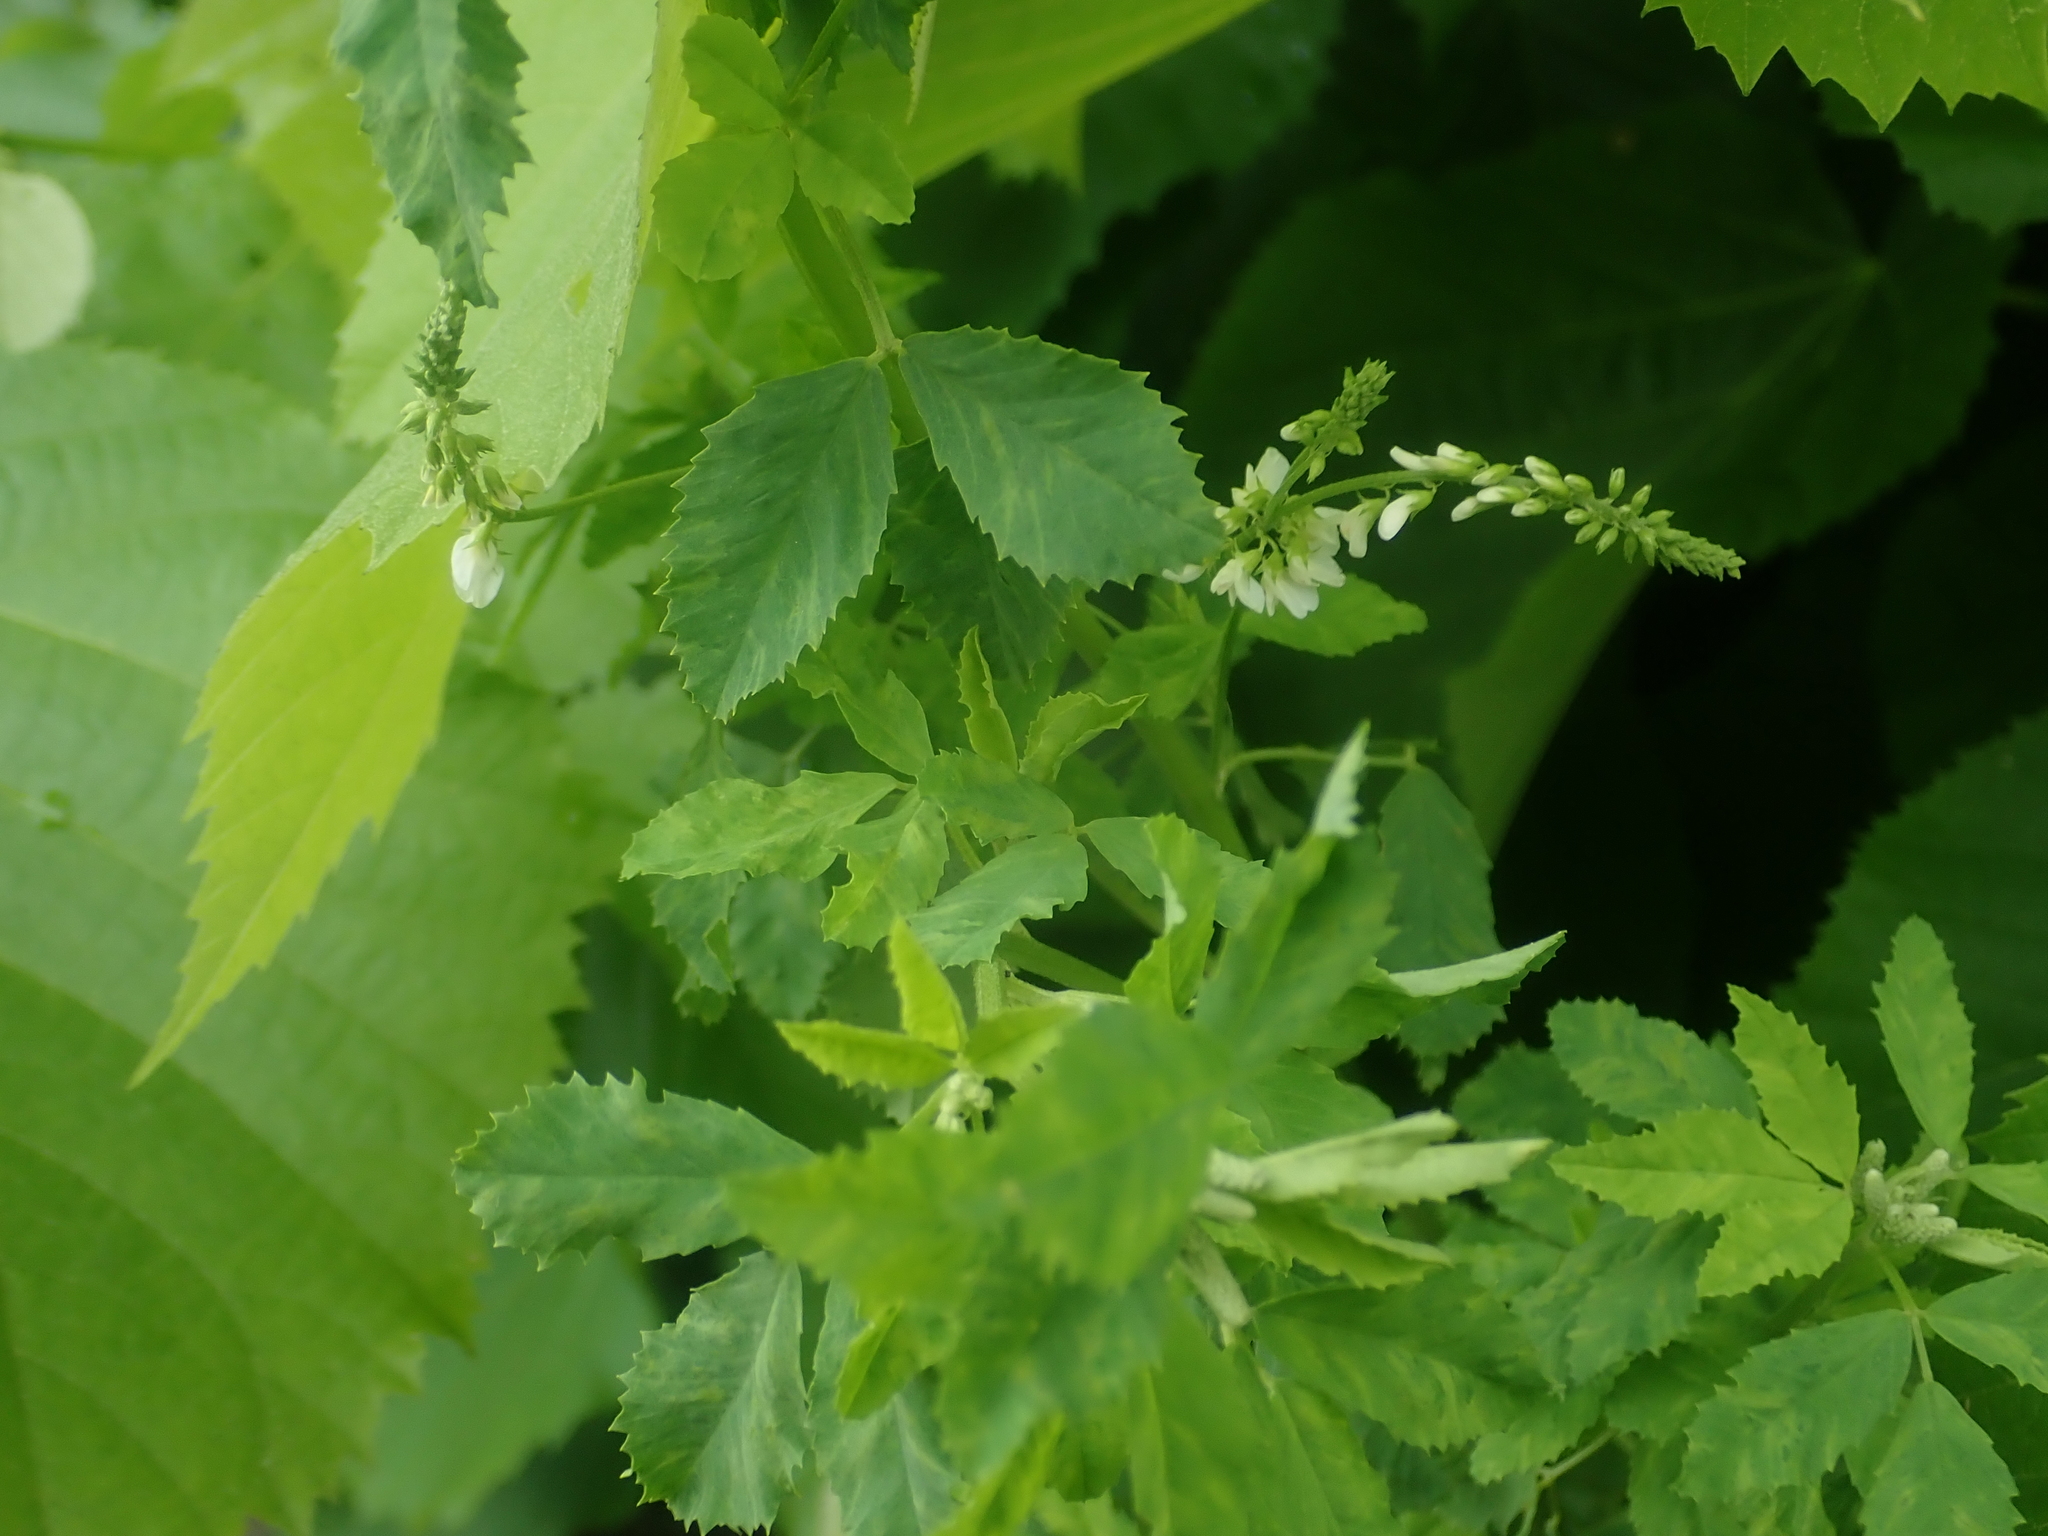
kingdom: Plantae
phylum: Tracheophyta
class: Magnoliopsida
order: Fabales
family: Fabaceae
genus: Melilotus
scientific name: Melilotus albus
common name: White melilot
